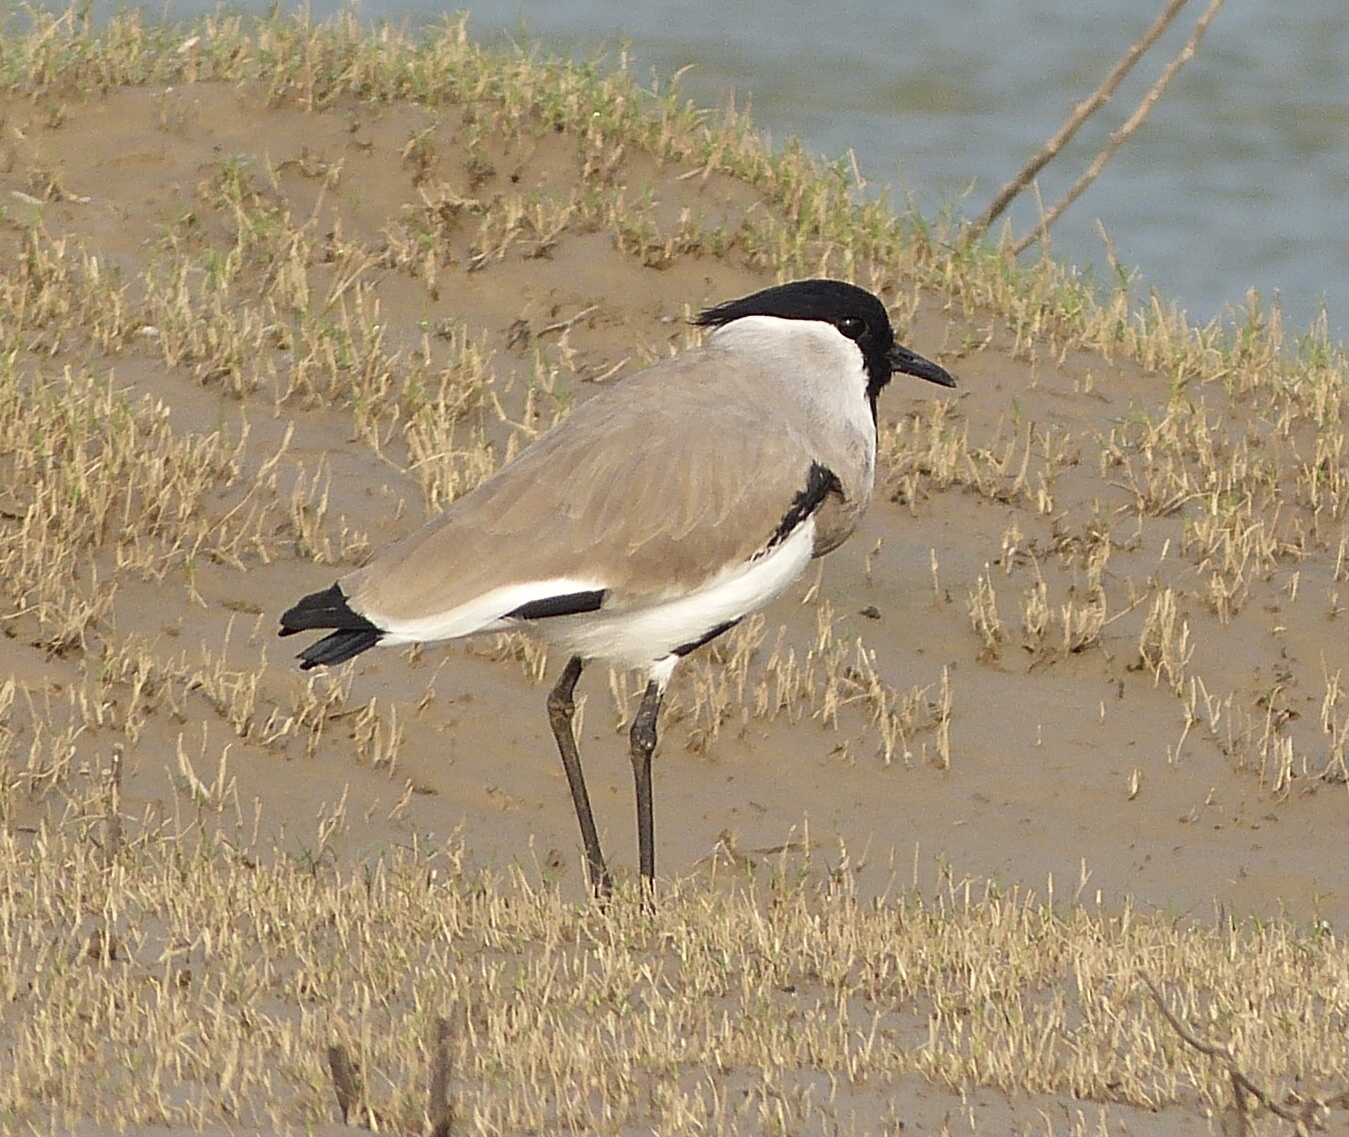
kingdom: Animalia
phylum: Chordata
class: Aves
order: Charadriiformes
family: Charadriidae
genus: Vanellus
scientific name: Vanellus duvaucelii
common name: River lapwing
